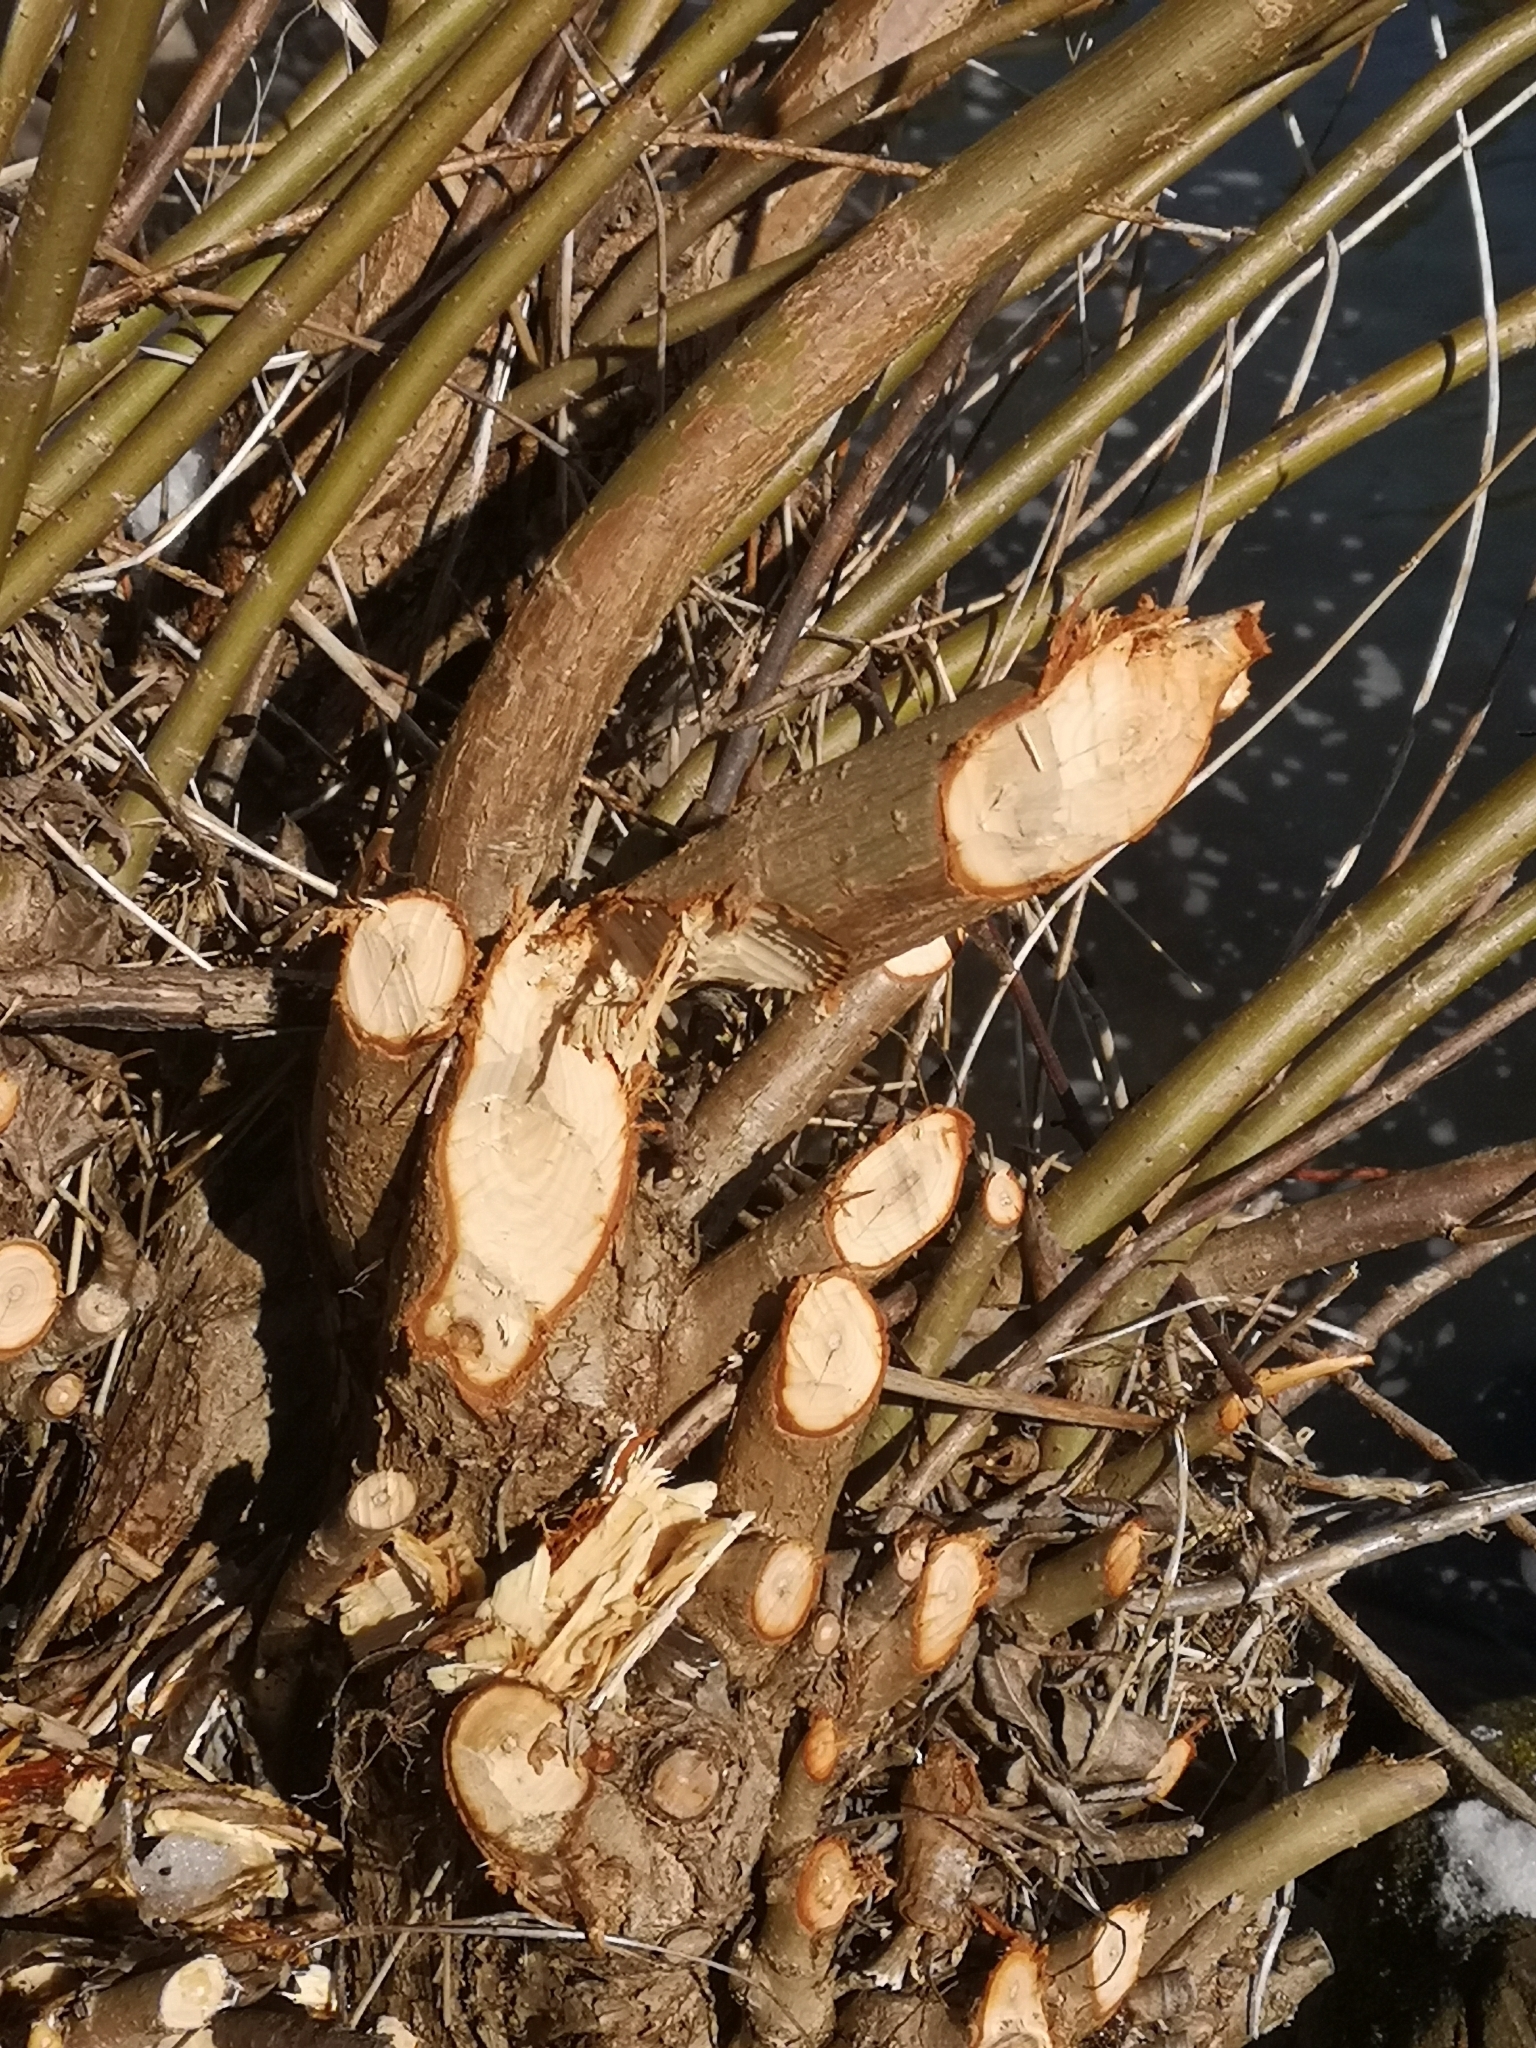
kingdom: Animalia
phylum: Chordata
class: Mammalia
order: Rodentia
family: Castoridae
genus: Castor
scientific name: Castor fiber
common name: Eurasian beaver
